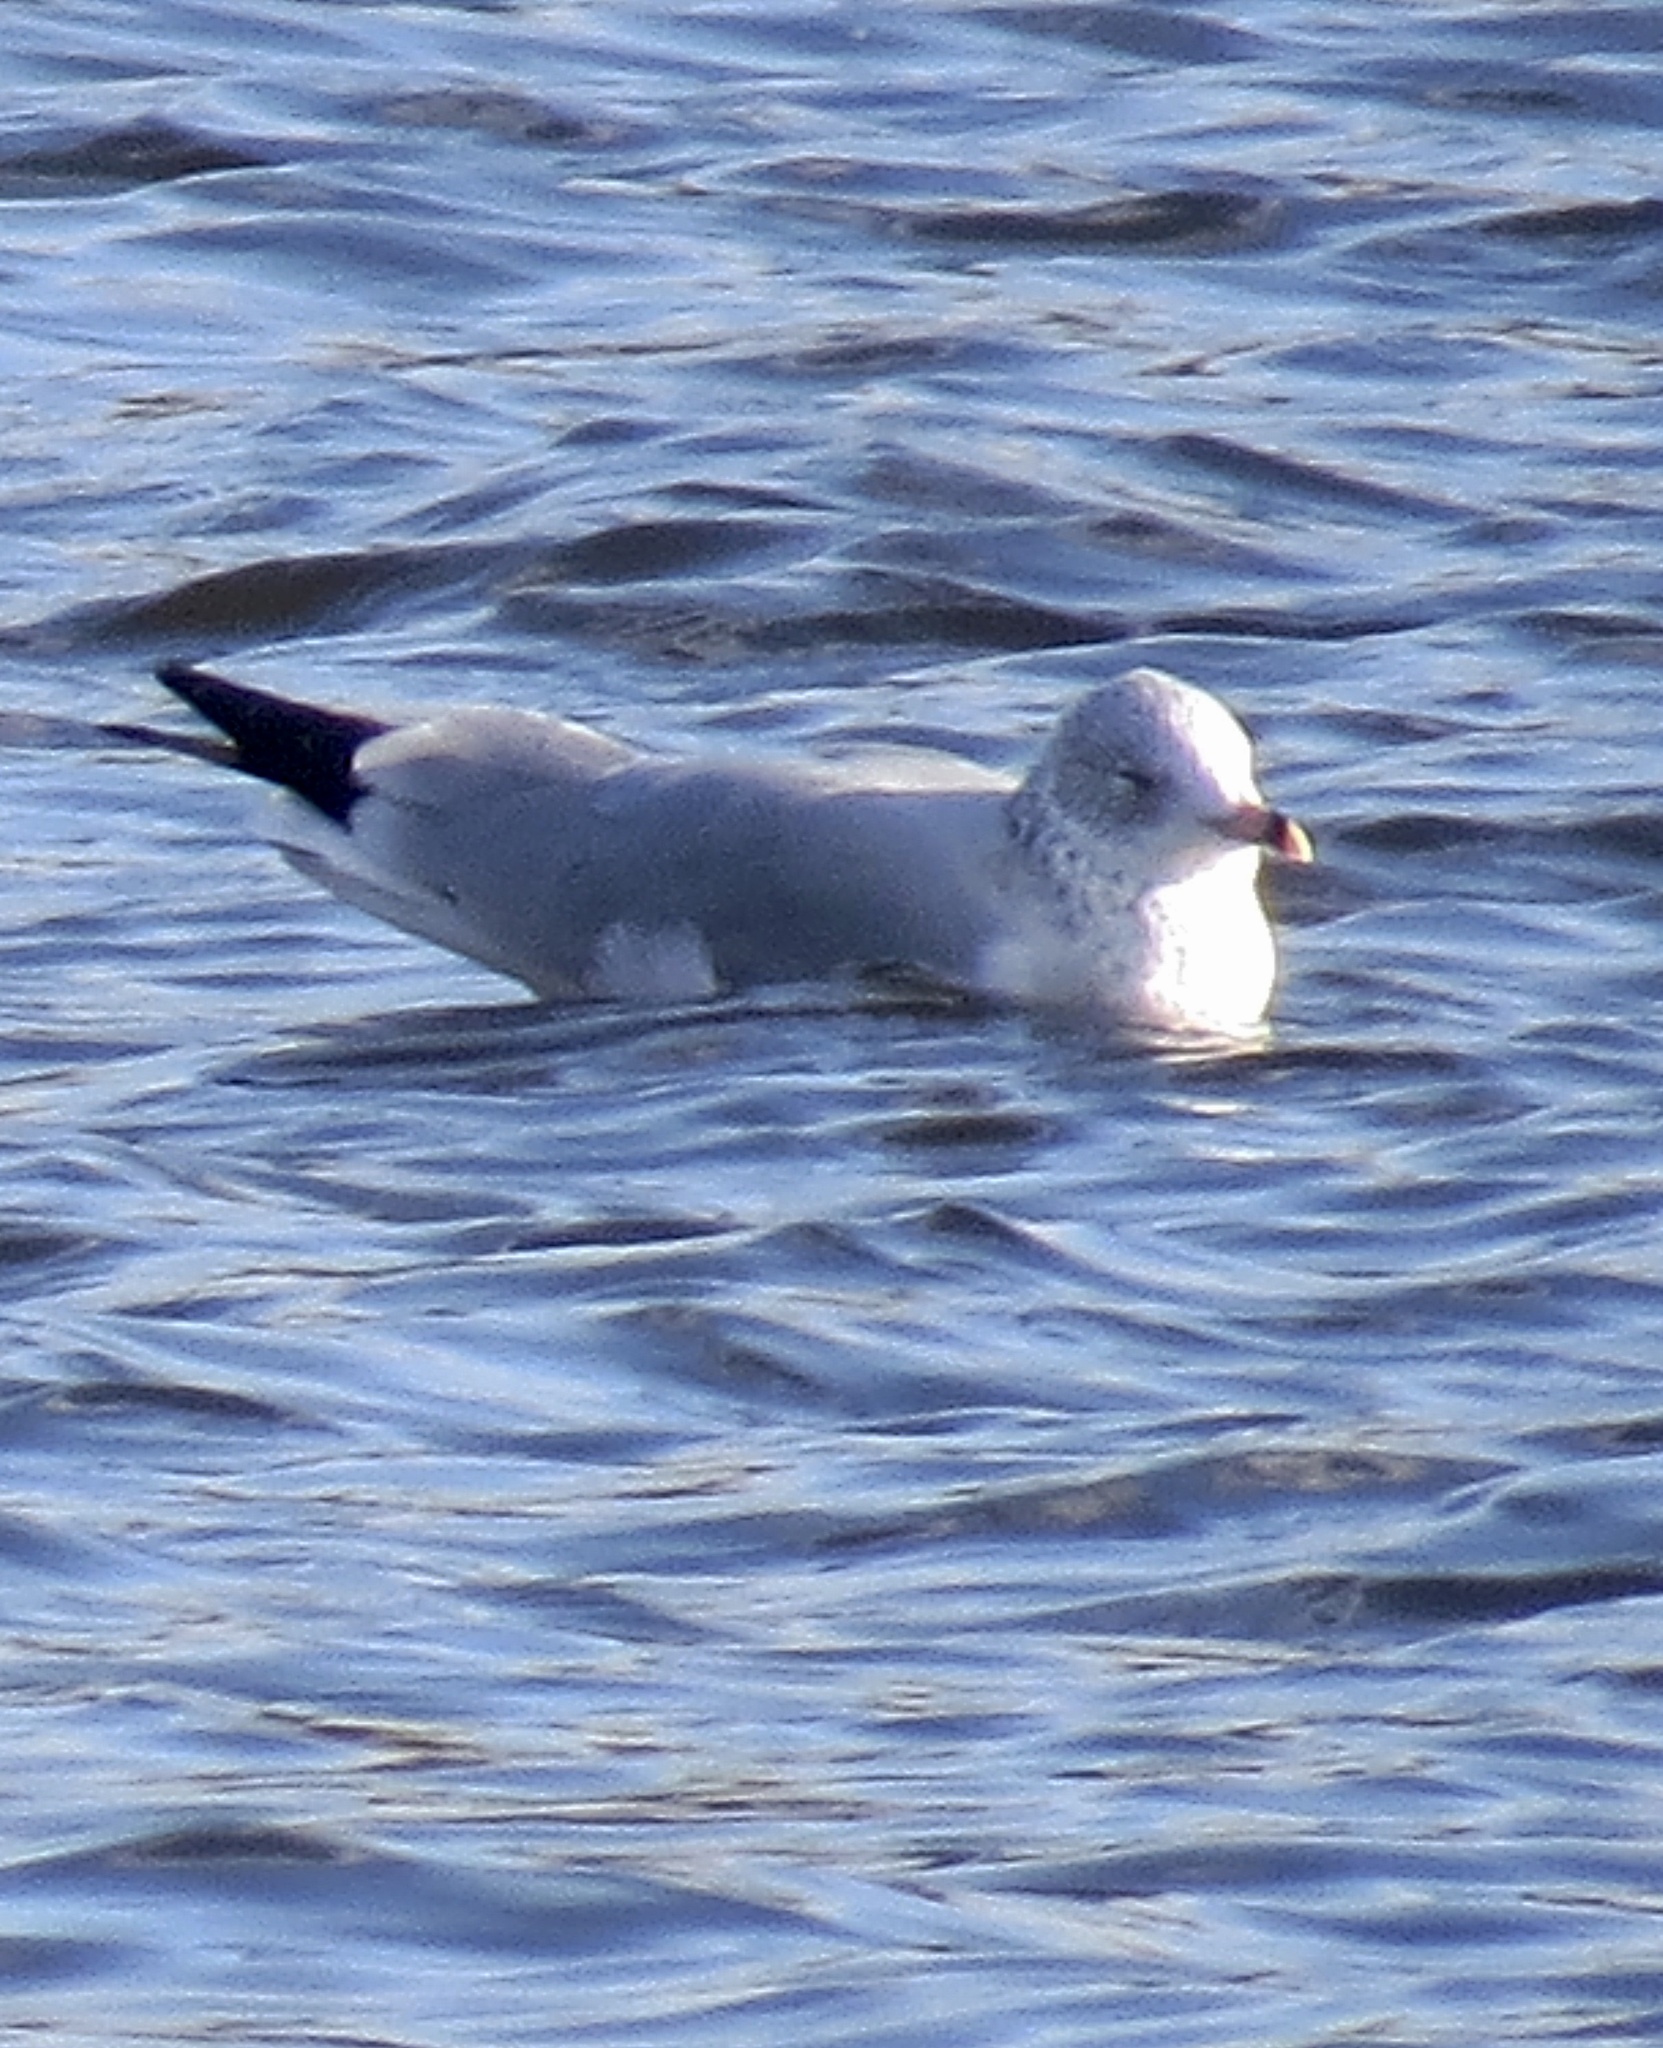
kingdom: Animalia
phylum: Chordata
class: Aves
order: Charadriiformes
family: Laridae
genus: Larus
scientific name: Larus delawarensis
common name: Ring-billed gull
